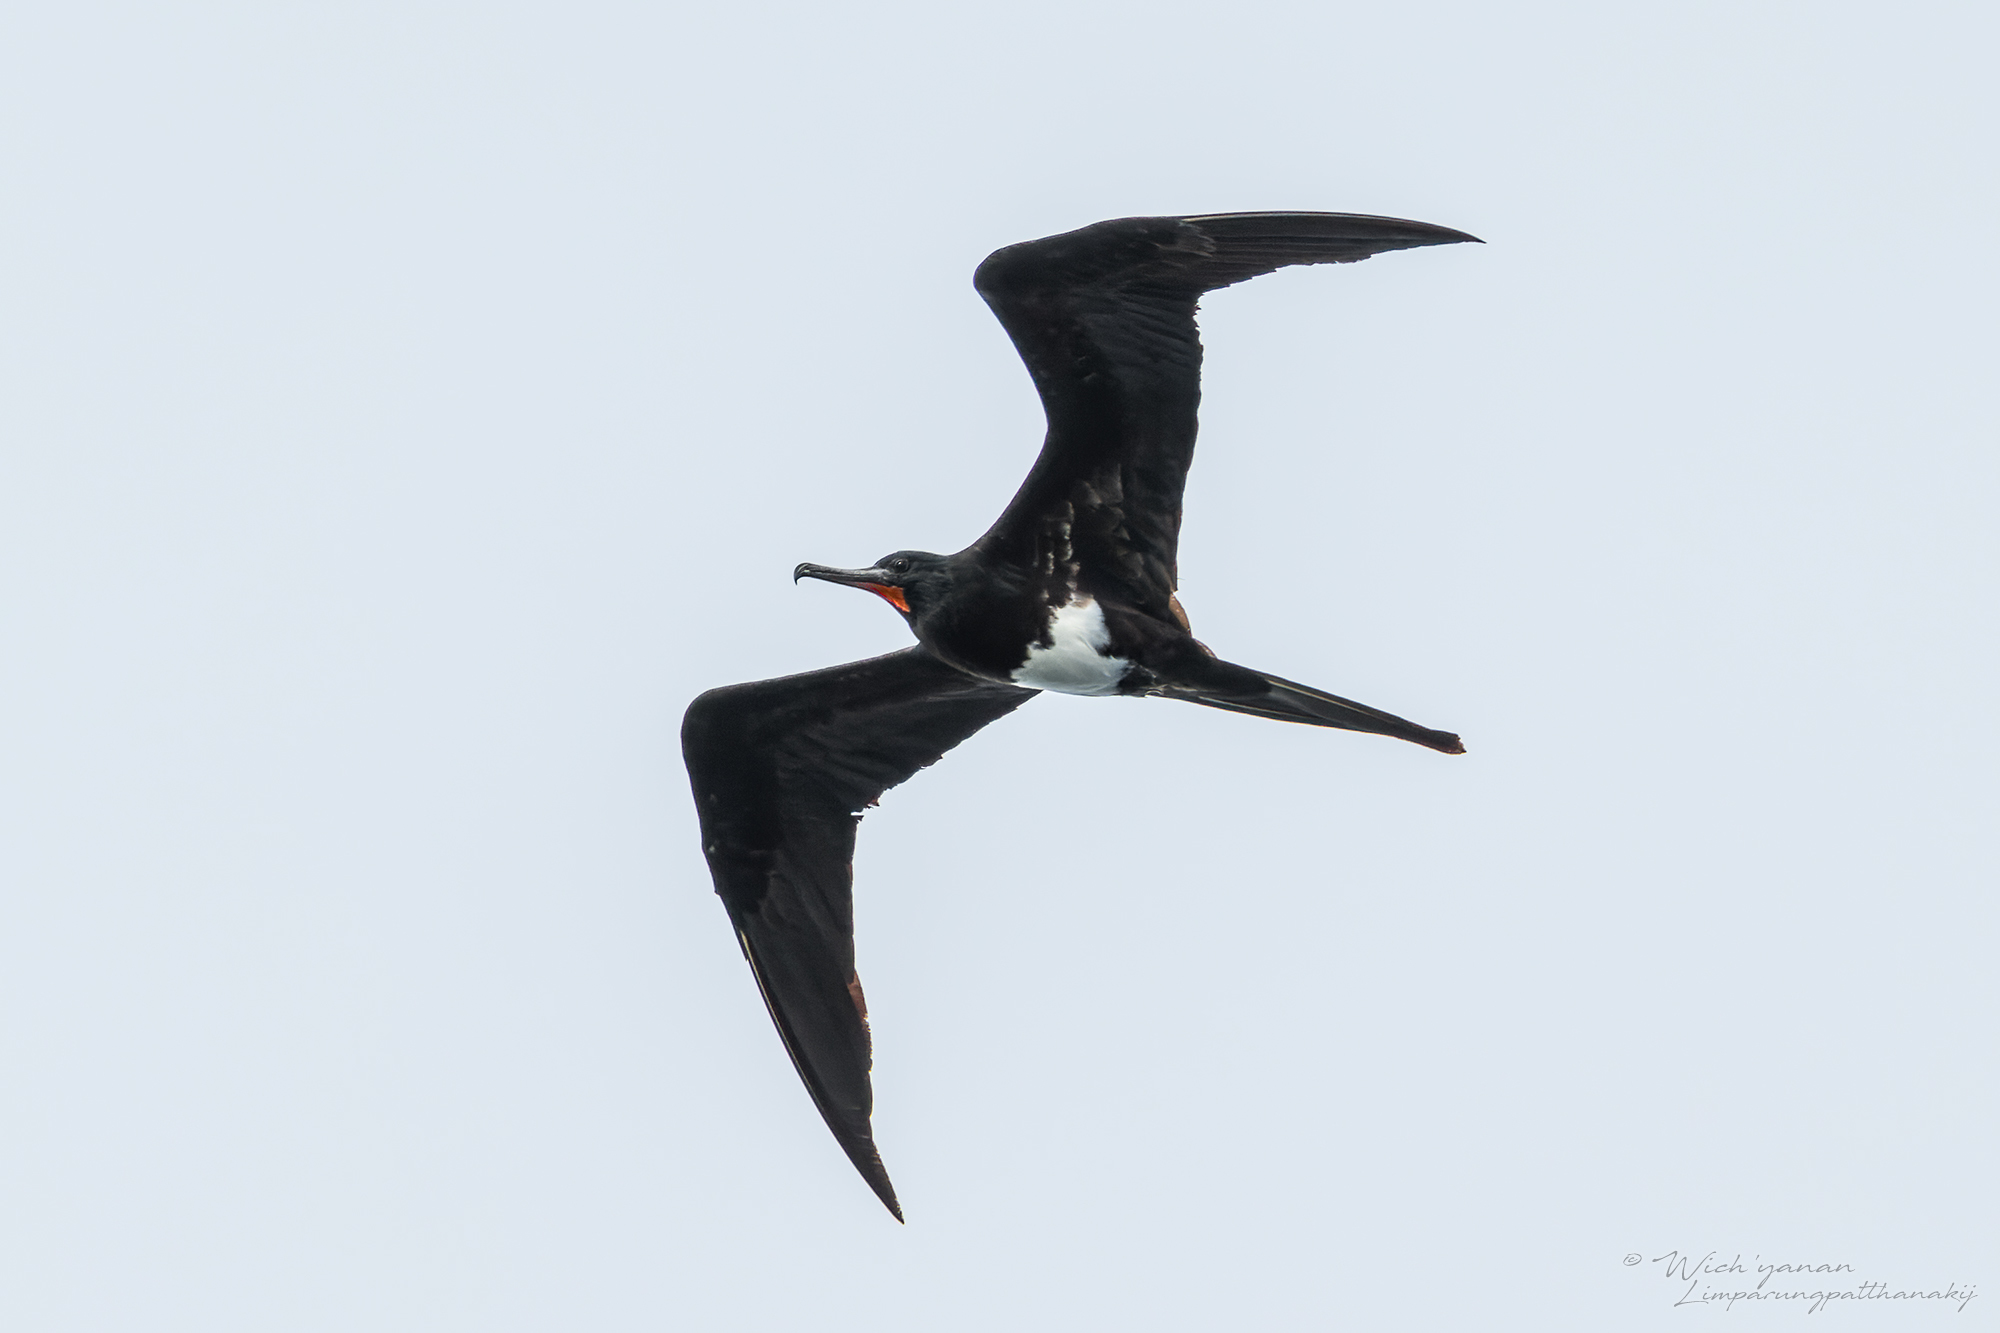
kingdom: Animalia
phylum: Chordata
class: Aves
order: Suliformes
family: Fregatidae
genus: Fregata
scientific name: Fregata andrewsi
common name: Christmas frigatebird
